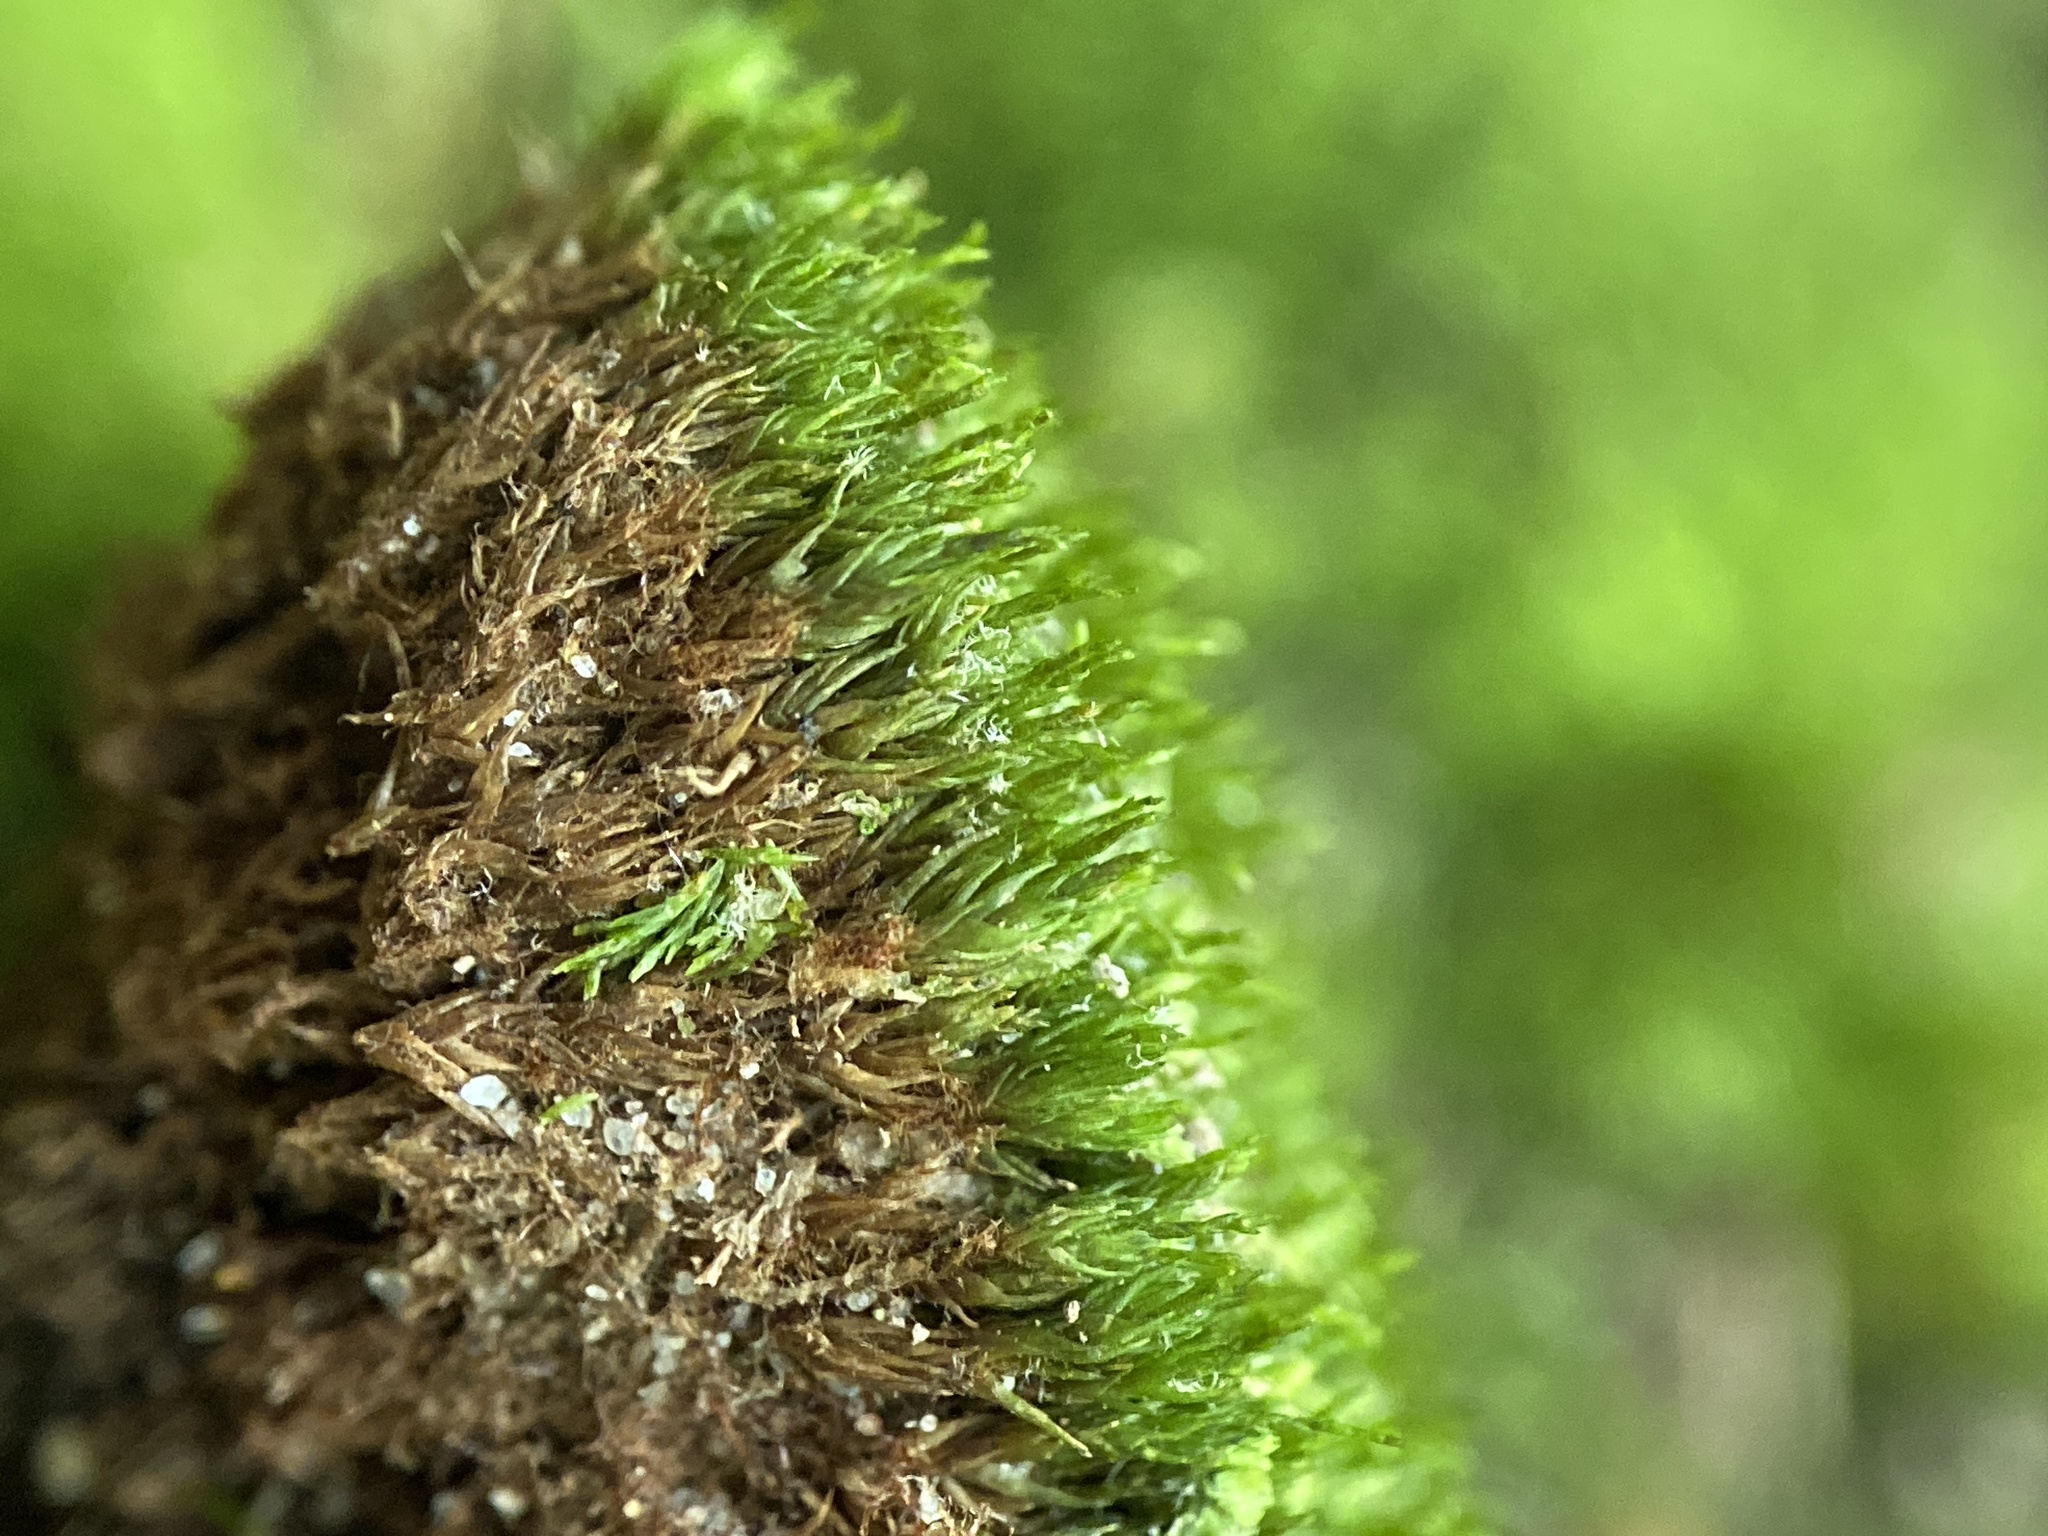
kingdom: Plantae
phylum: Bryophyta
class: Bryopsida
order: Dicranales
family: Dicranaceae
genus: Orthodicranum
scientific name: Orthodicranum flagellare
